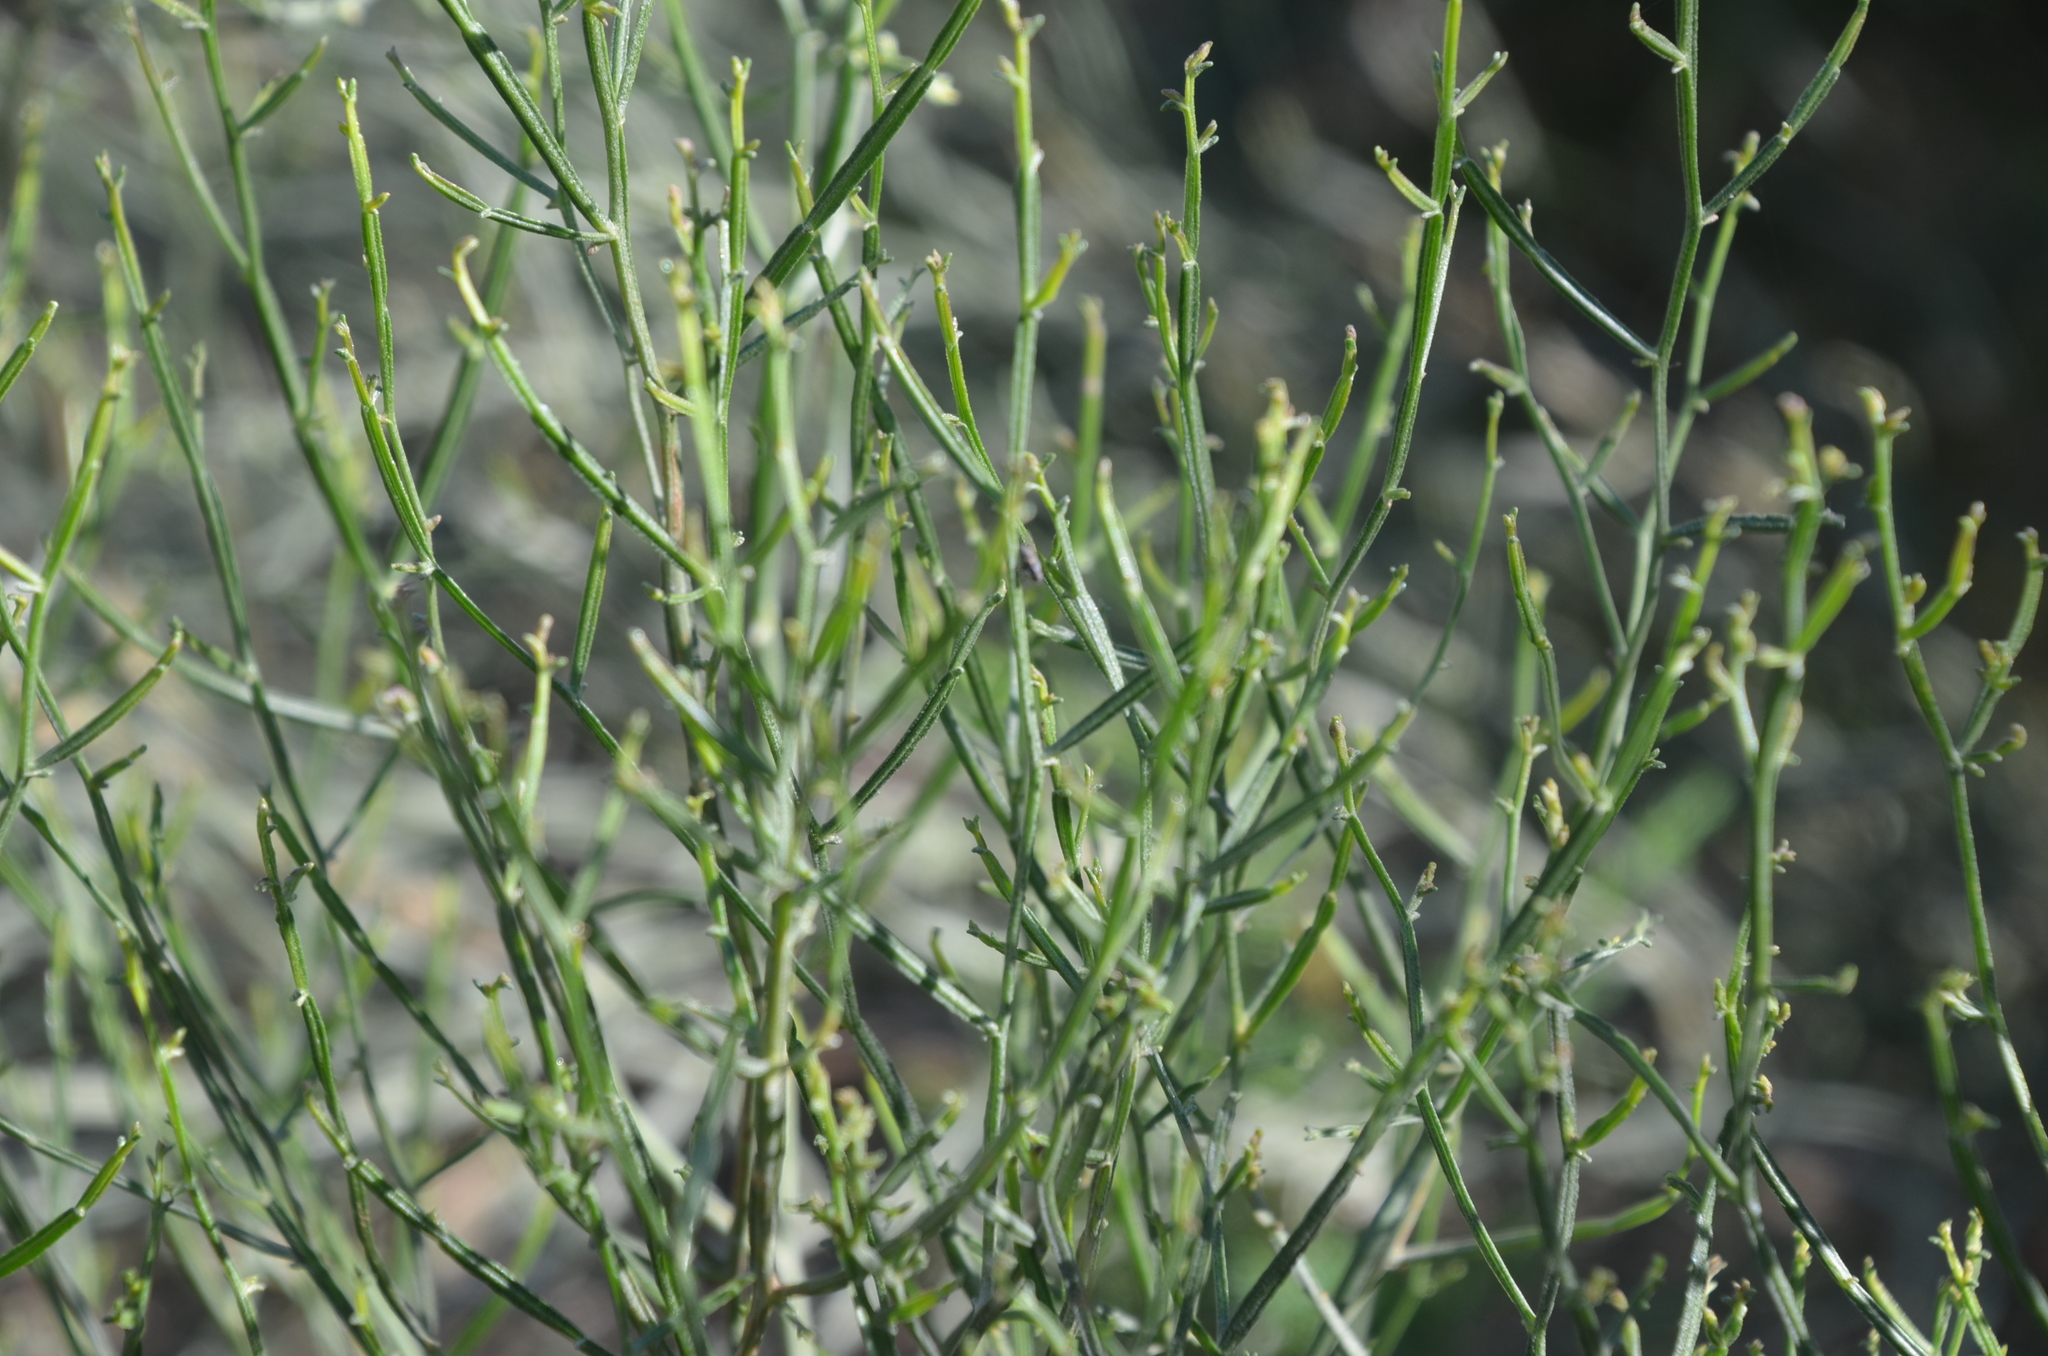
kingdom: Plantae
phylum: Tracheophyta
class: Magnoliopsida
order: Asterales
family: Asteraceae
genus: Baccharis
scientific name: Baccharis articulata
